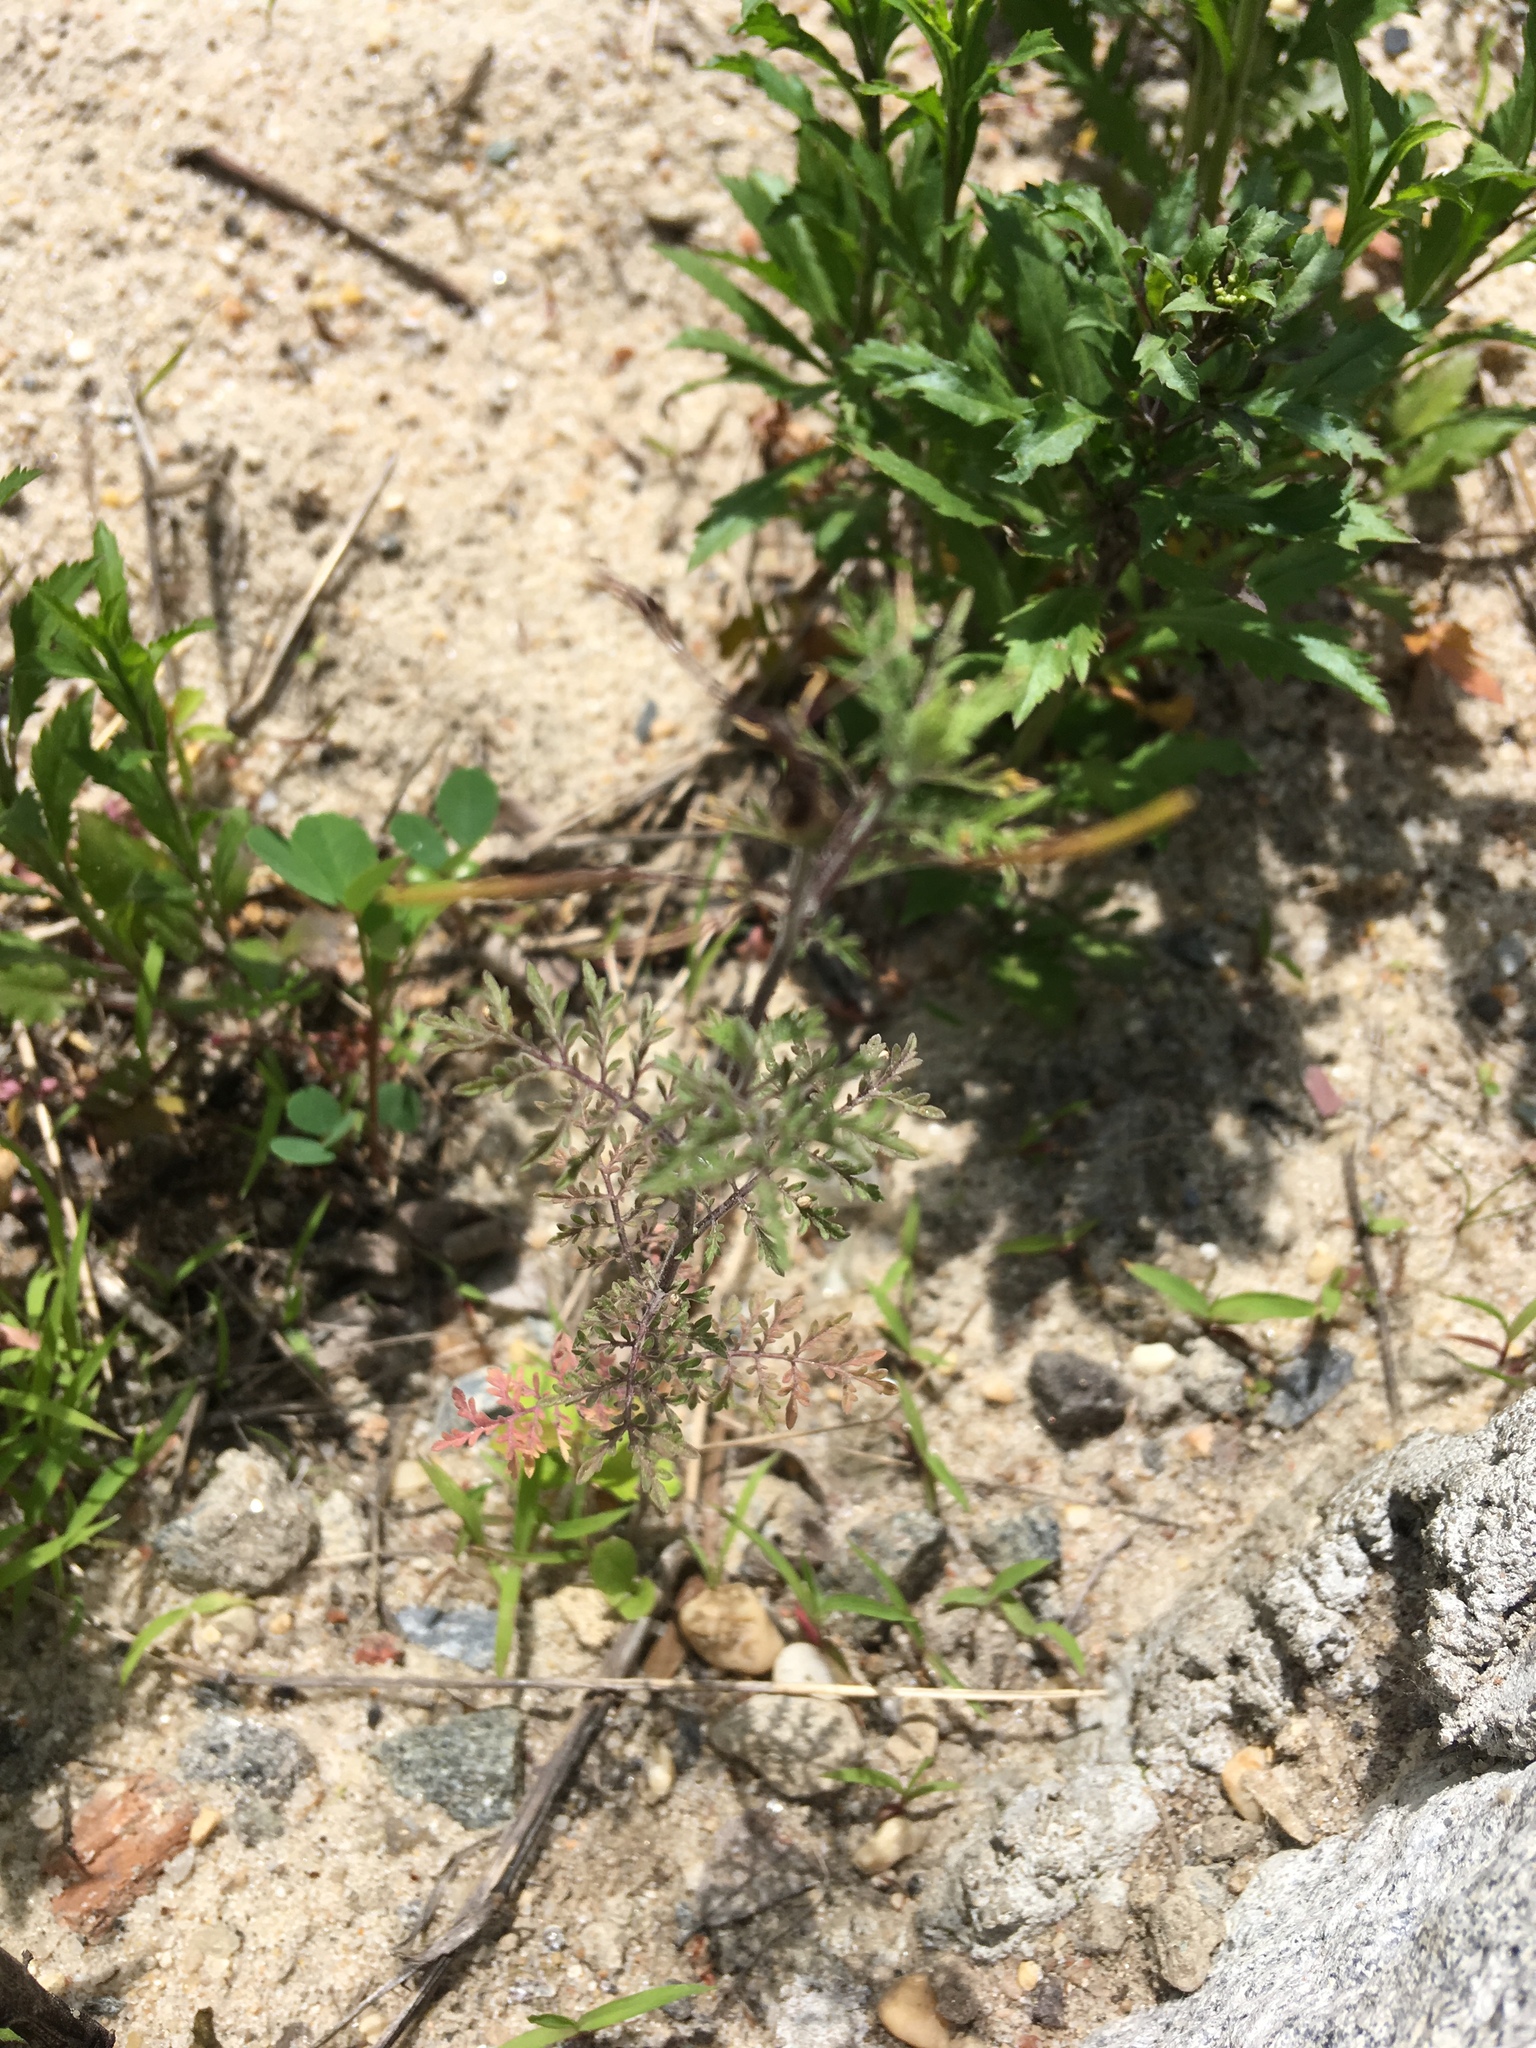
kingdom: Plantae
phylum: Tracheophyta
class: Magnoliopsida
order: Brassicales
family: Brassicaceae
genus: Descurainia
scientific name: Descurainia sophia
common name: Flixweed
